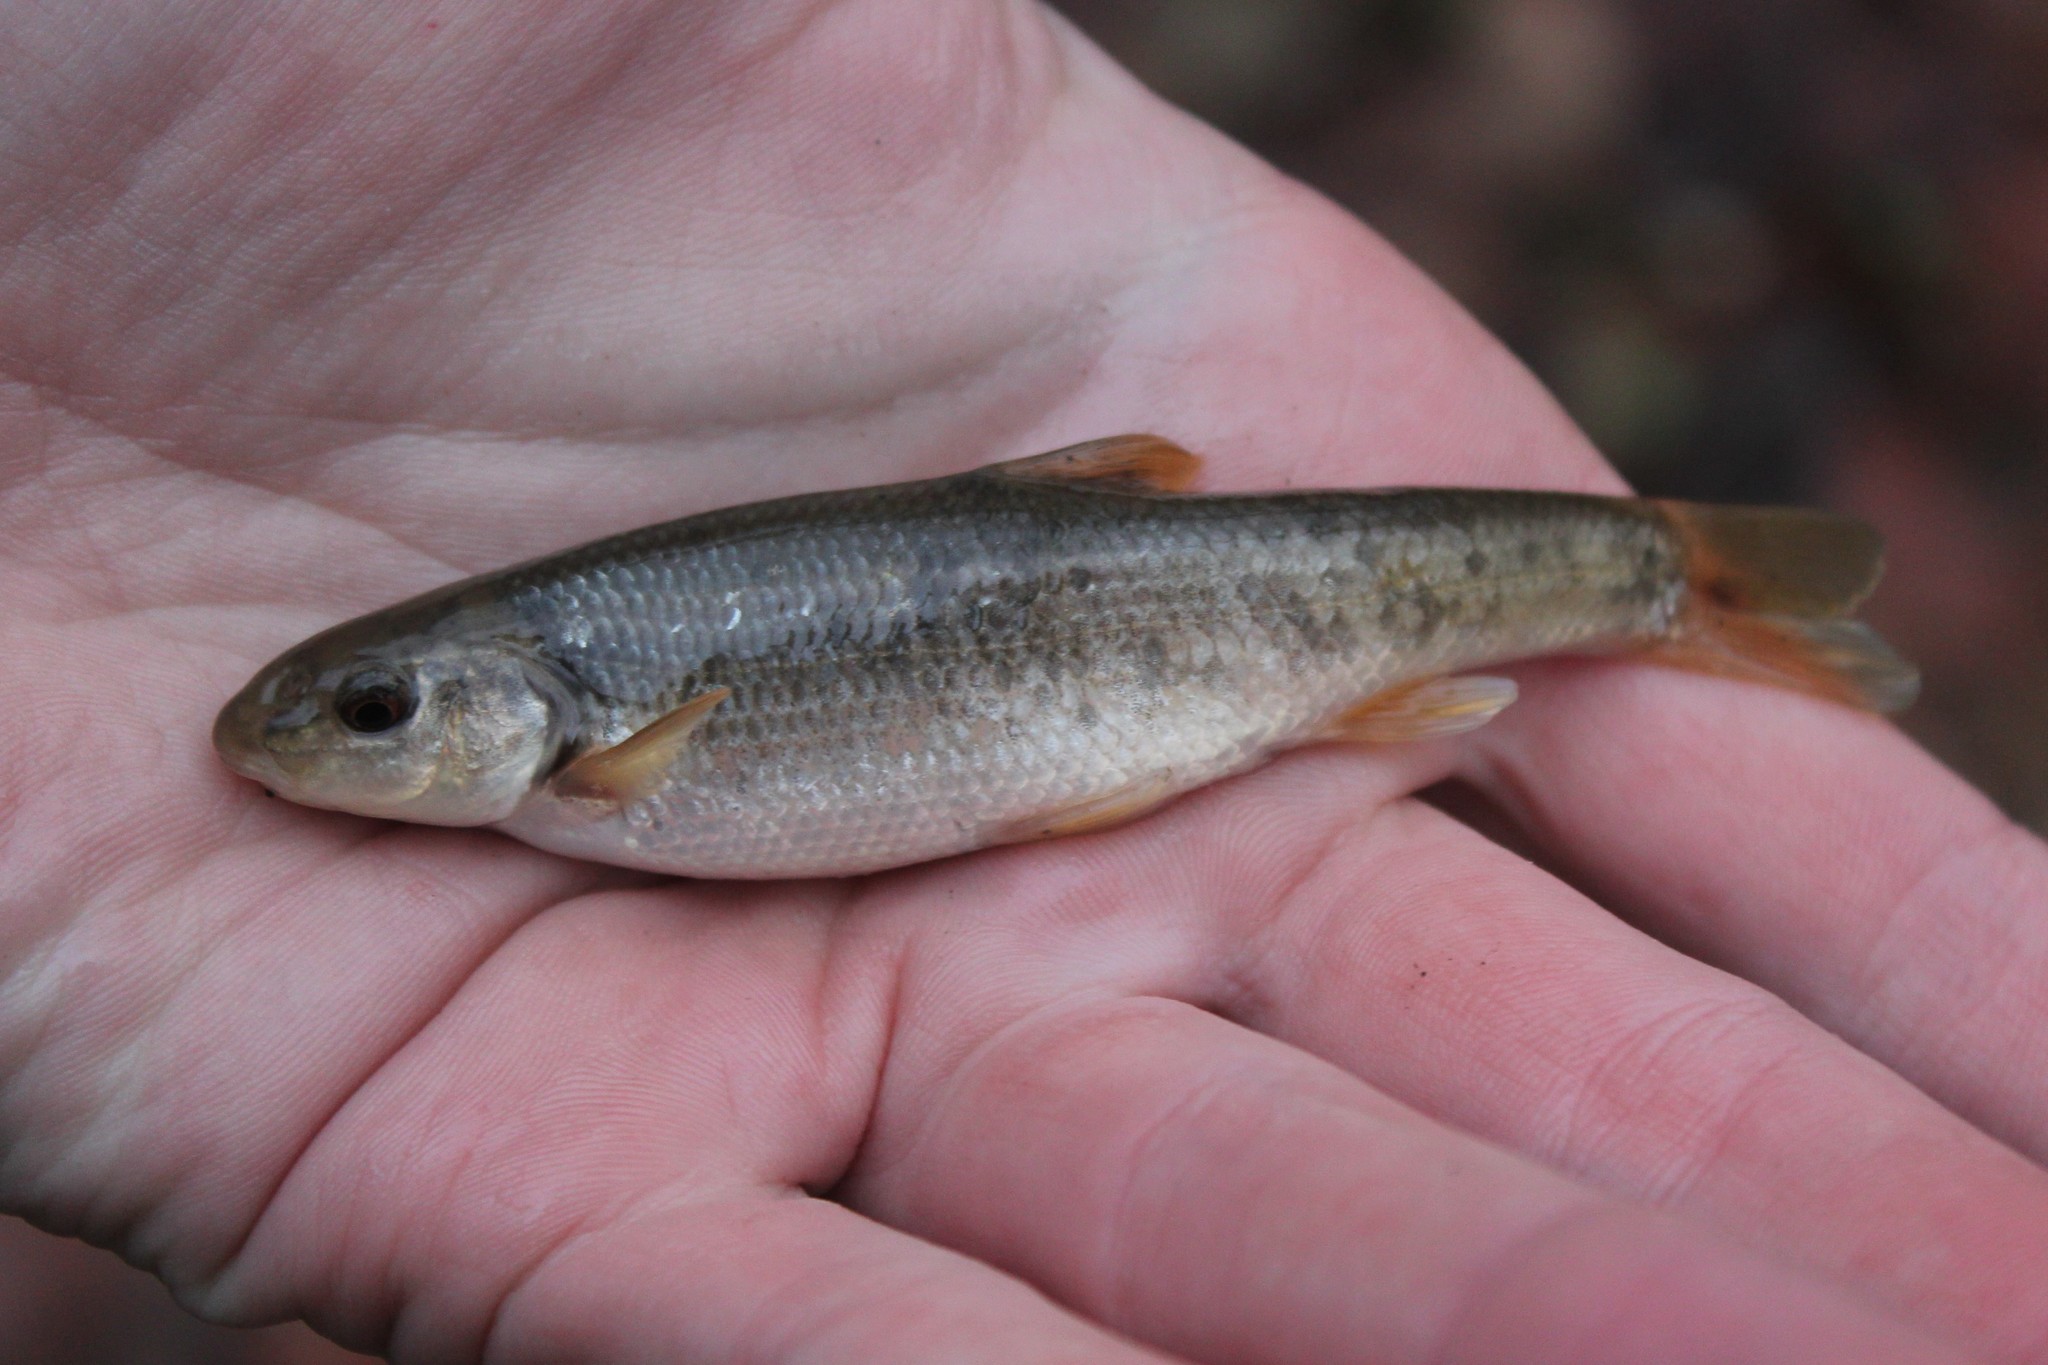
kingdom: Animalia
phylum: Chordata
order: Cypriniformes
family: Cyprinidae
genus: Campostoma
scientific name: Campostoma anomalum
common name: Central stoneroller
